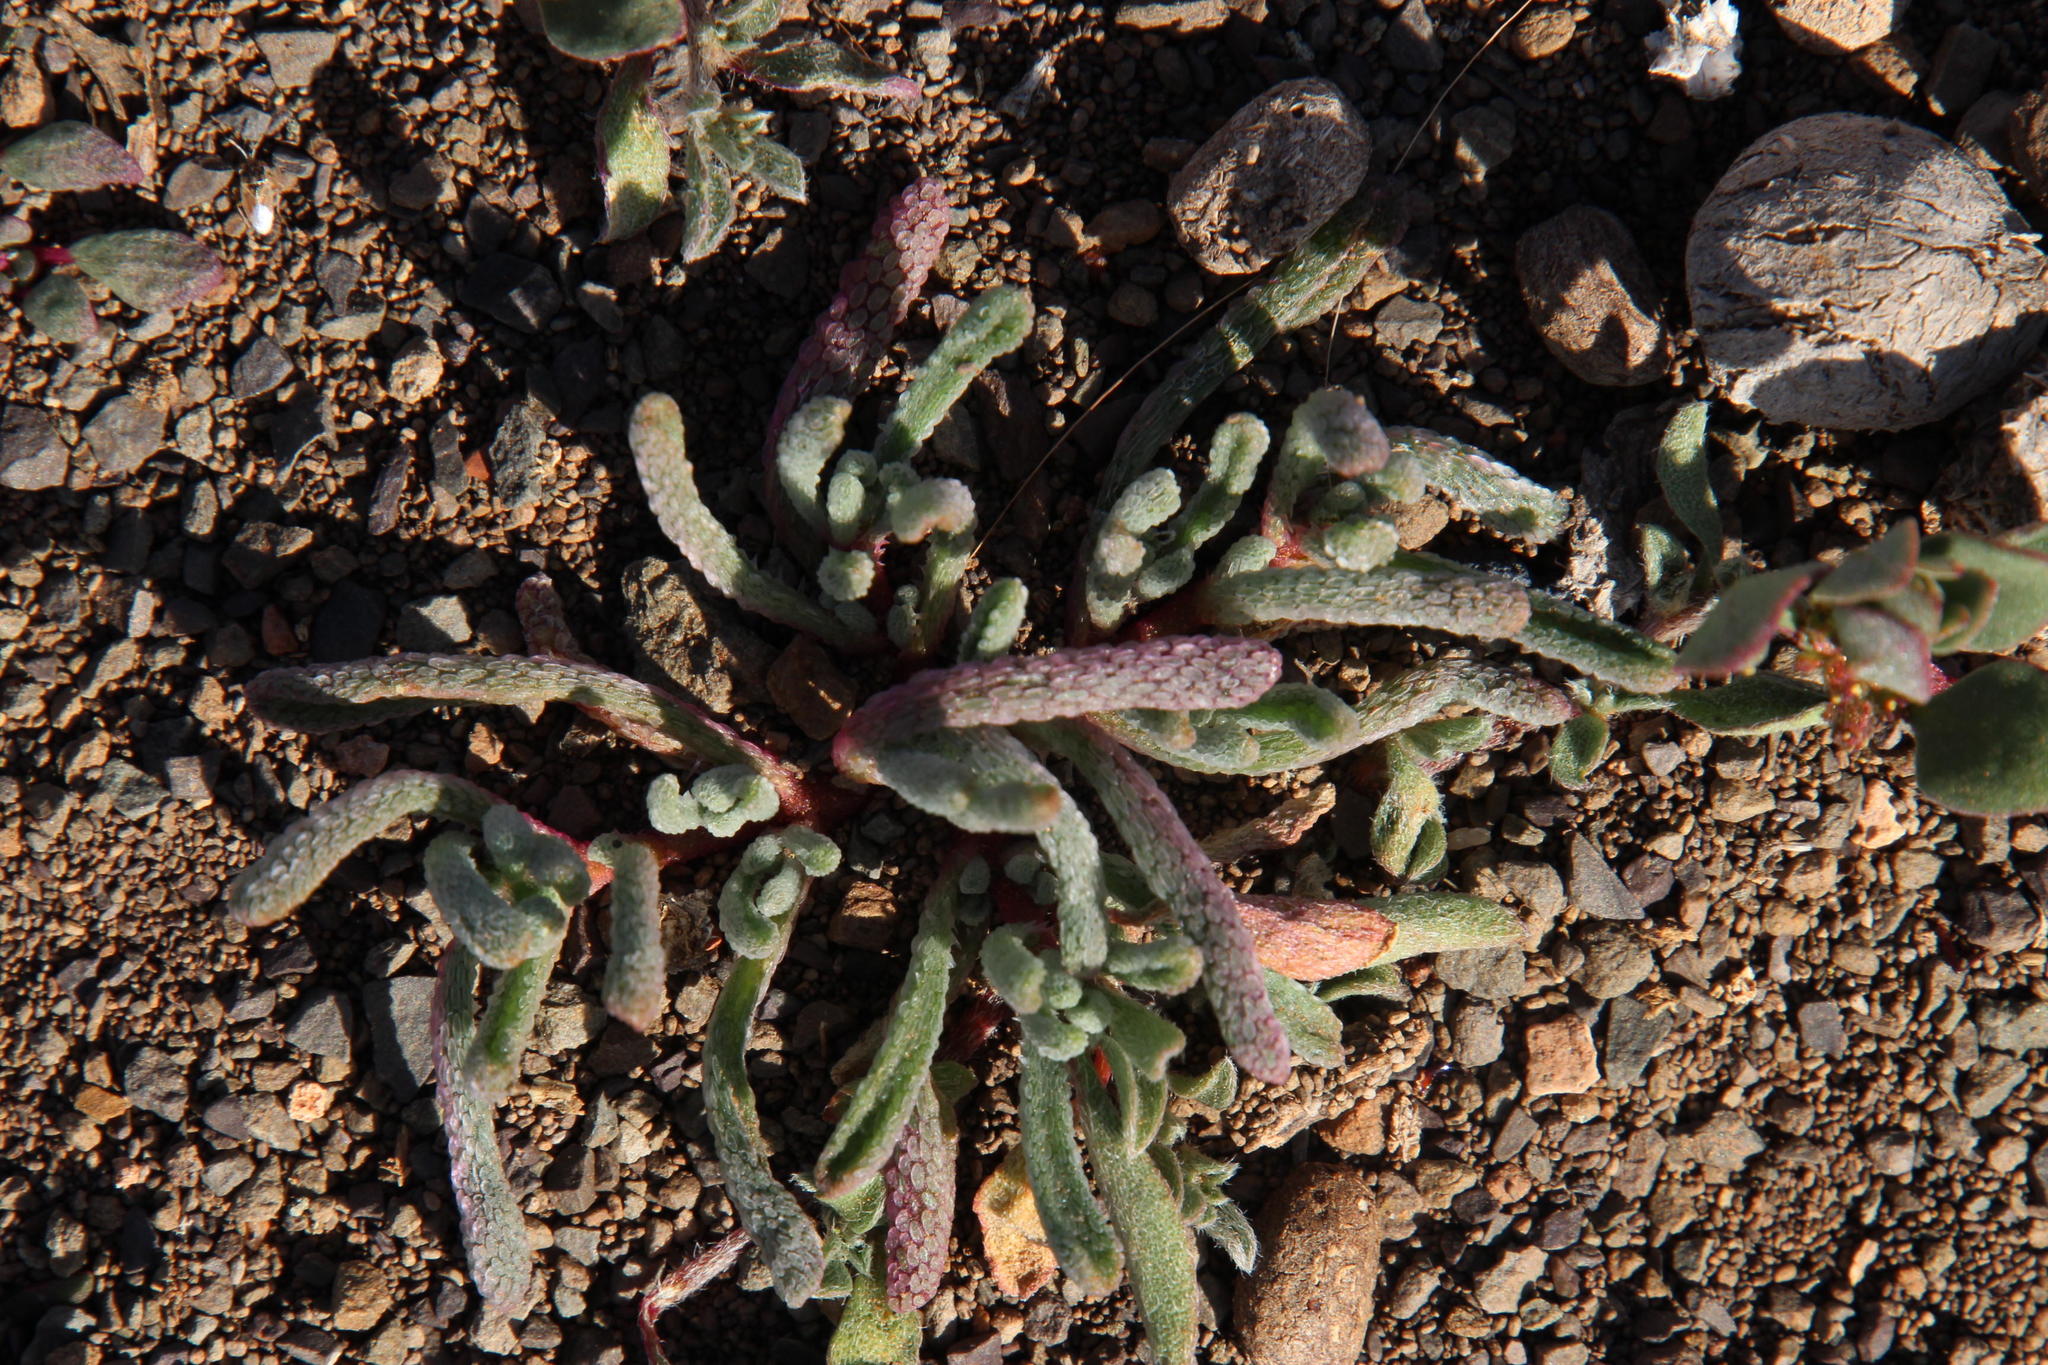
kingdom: Plantae
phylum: Tracheophyta
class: Magnoliopsida
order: Caryophyllales
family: Aizoaceae
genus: Mesembryanthemum
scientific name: Mesembryanthemum nodiflorum
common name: Slenderleaf iceplant
